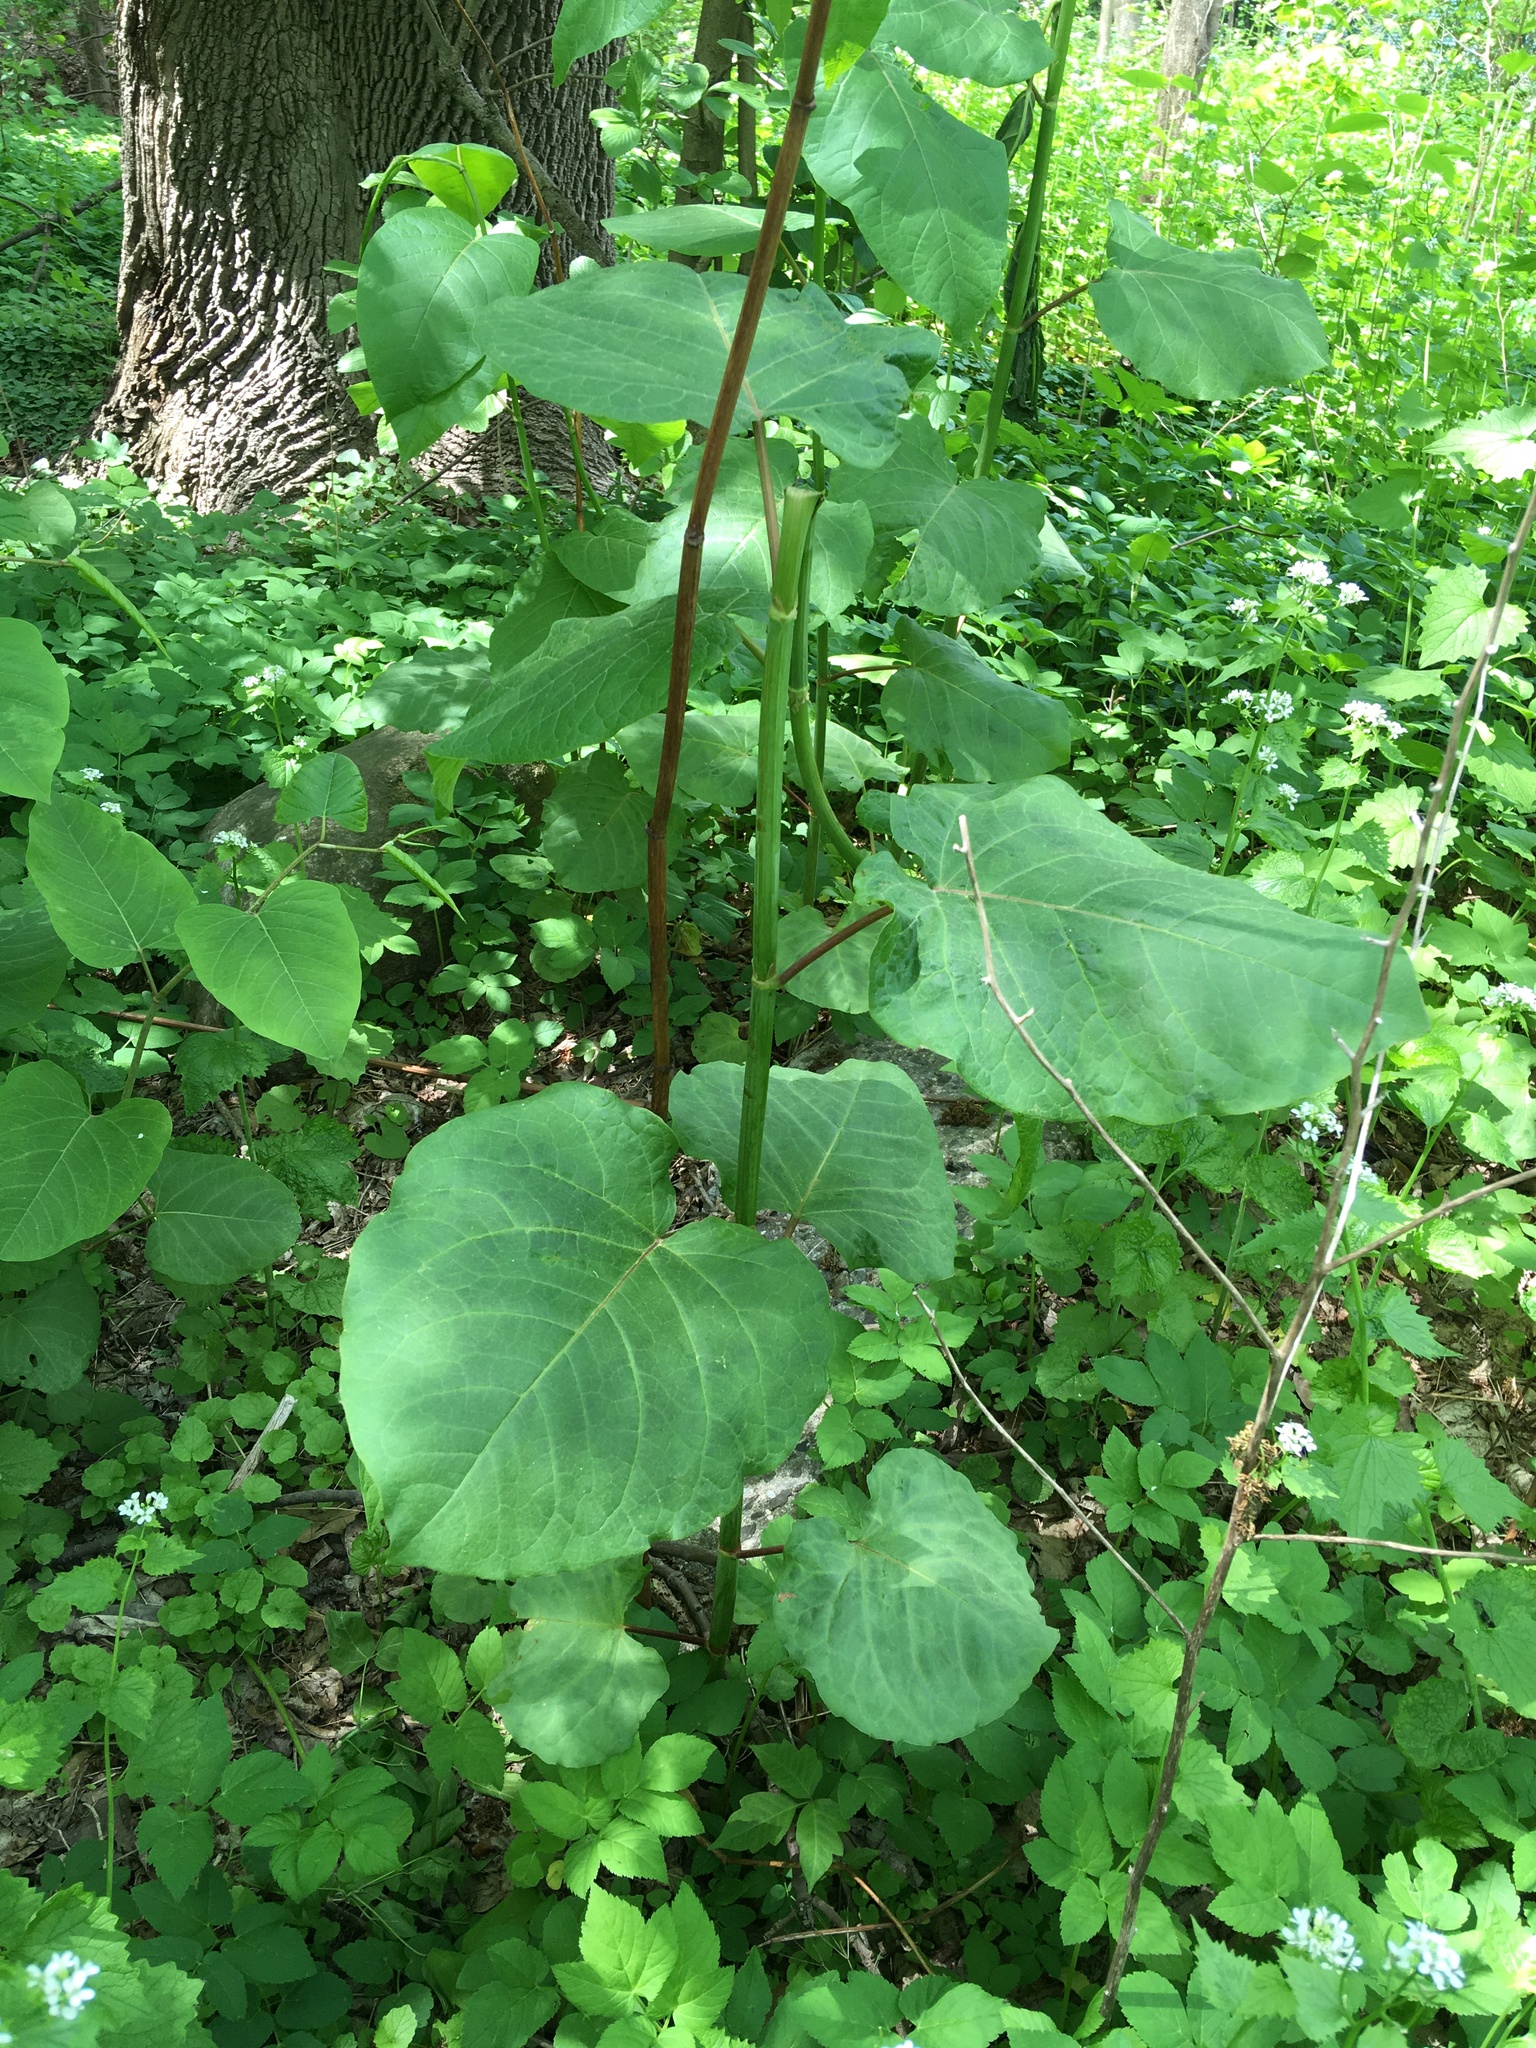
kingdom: Plantae
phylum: Tracheophyta
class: Magnoliopsida
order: Caryophyllales
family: Polygonaceae
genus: Reynoutria
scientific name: Reynoutria sachalinensis
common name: Giant knotweed
